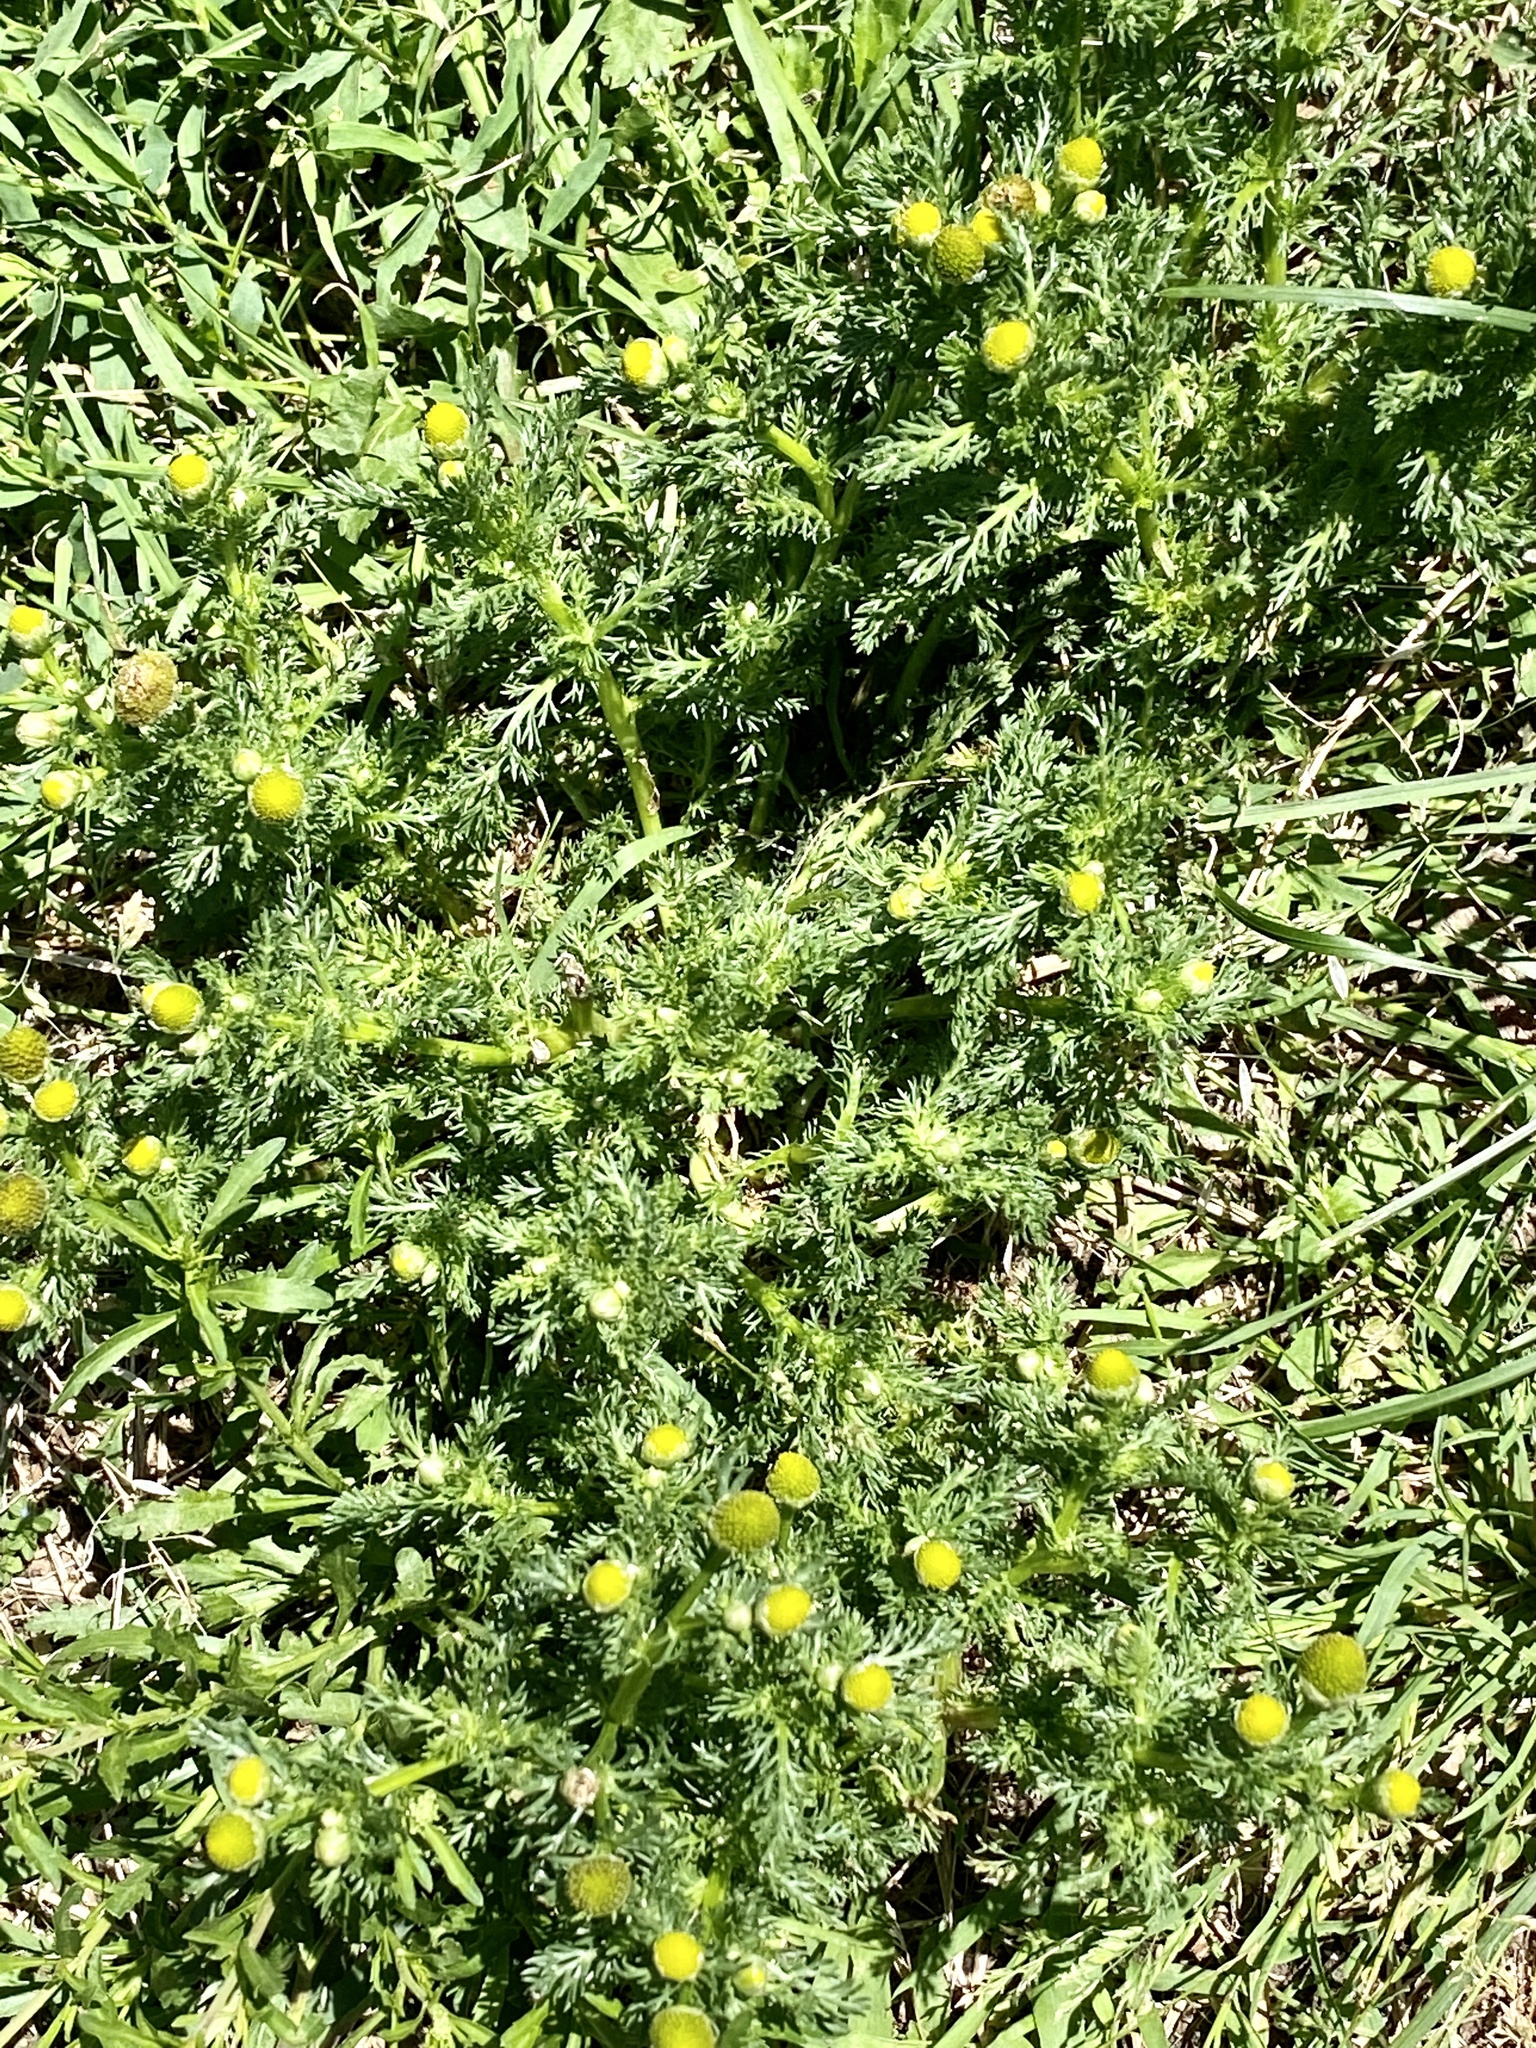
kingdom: Plantae
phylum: Tracheophyta
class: Magnoliopsida
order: Asterales
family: Asteraceae
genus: Matricaria
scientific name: Matricaria discoidea
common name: Disc mayweed
